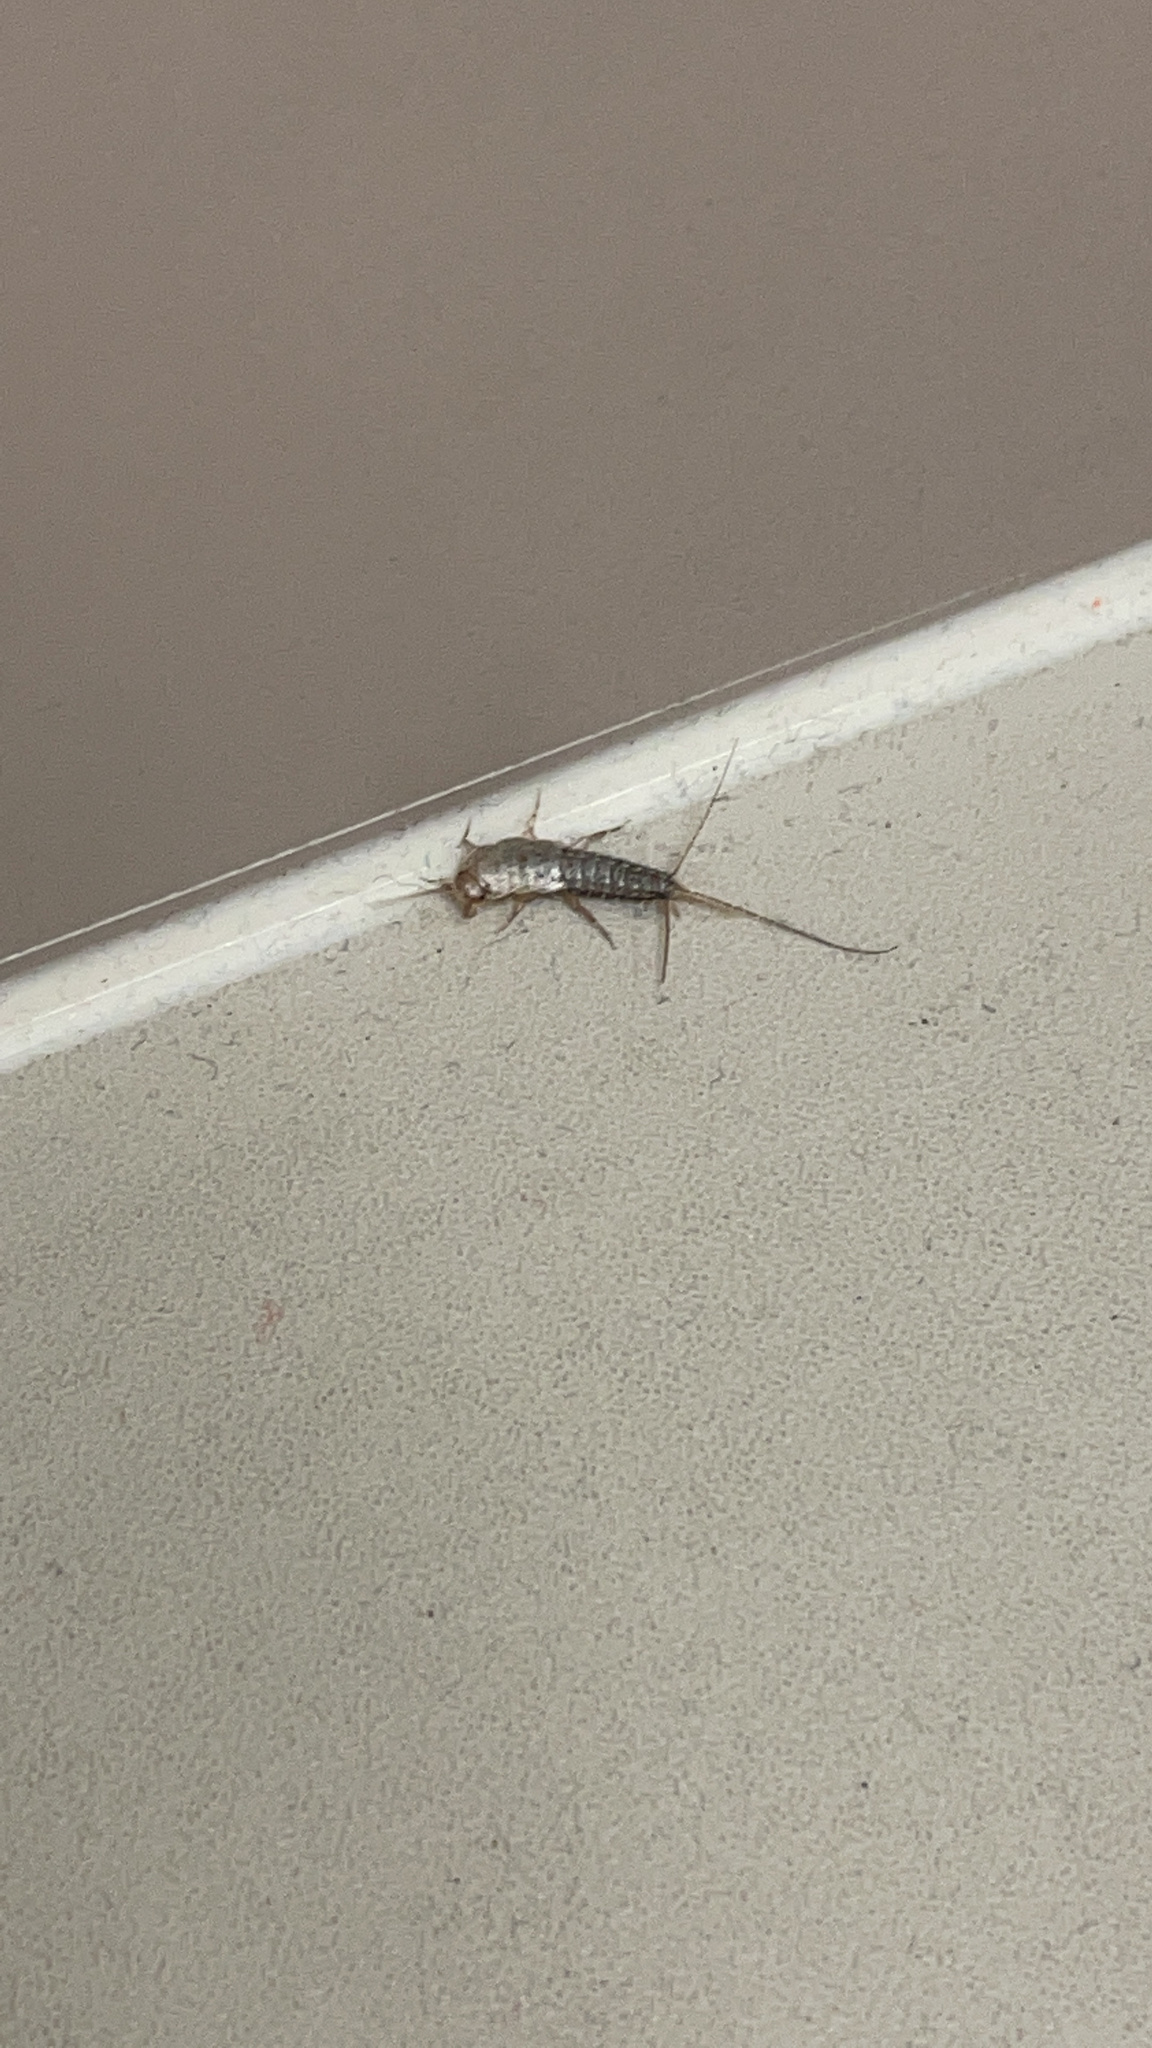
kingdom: Animalia
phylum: Arthropoda
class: Insecta
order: Zygentoma
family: Lepismatidae
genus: Ctenolepisma
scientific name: Ctenolepisma lineata
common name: Four-lined silverfish
